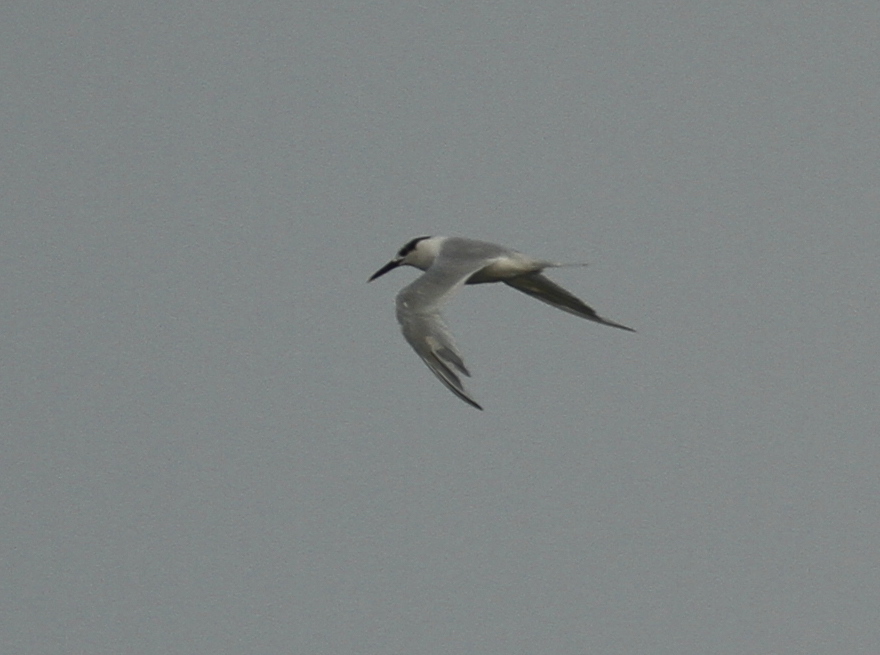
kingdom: Animalia
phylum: Chordata
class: Aves
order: Charadriiformes
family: Laridae
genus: Thalasseus
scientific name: Thalasseus sandvicensis
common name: Sandwich tern
